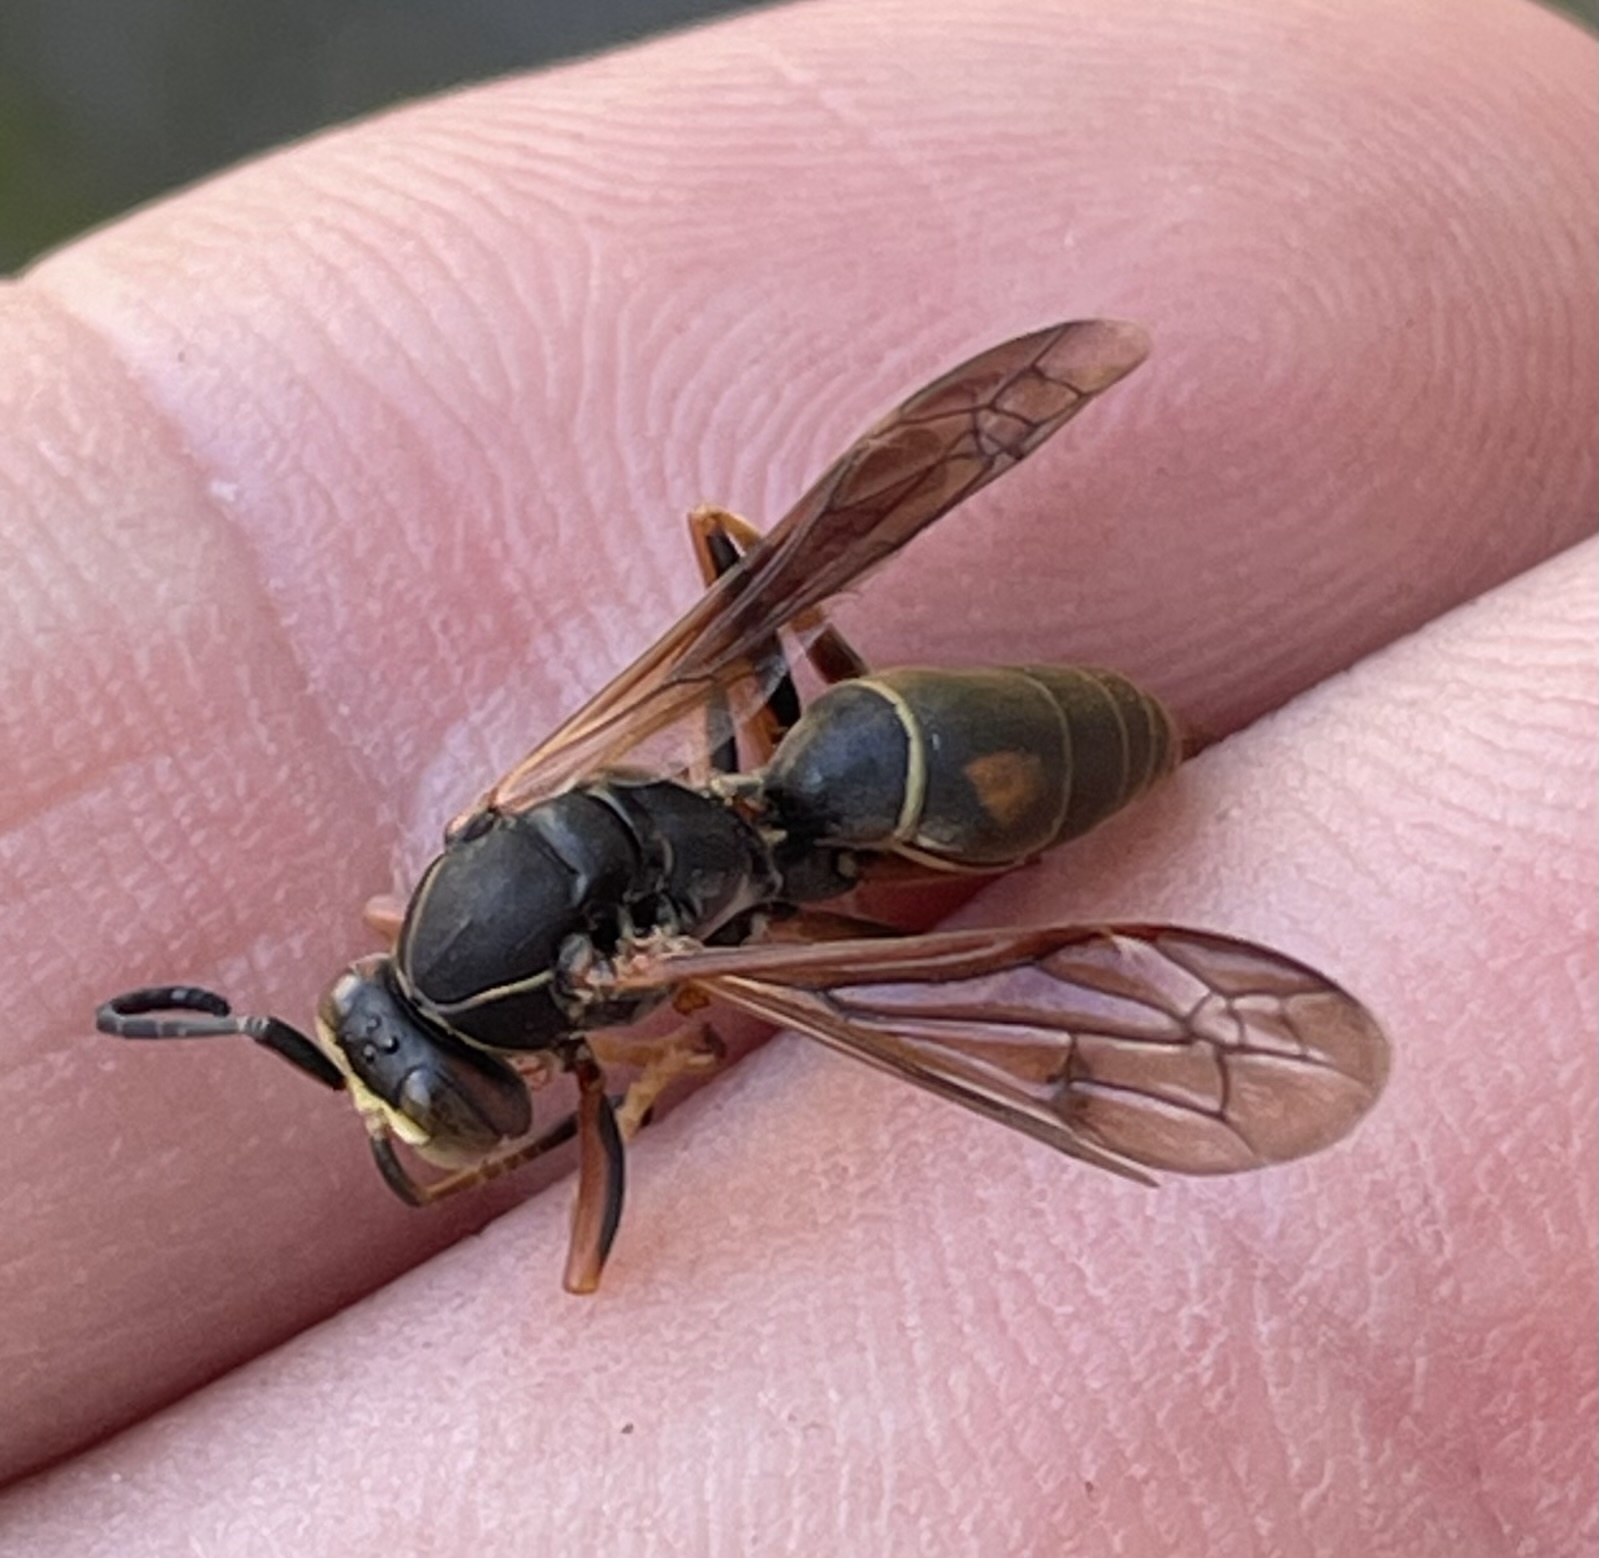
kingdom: Animalia
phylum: Arthropoda
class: Insecta
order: Hymenoptera
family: Eumenidae
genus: Polistes
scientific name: Polistes fuscatus
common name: Dark paper wasp
